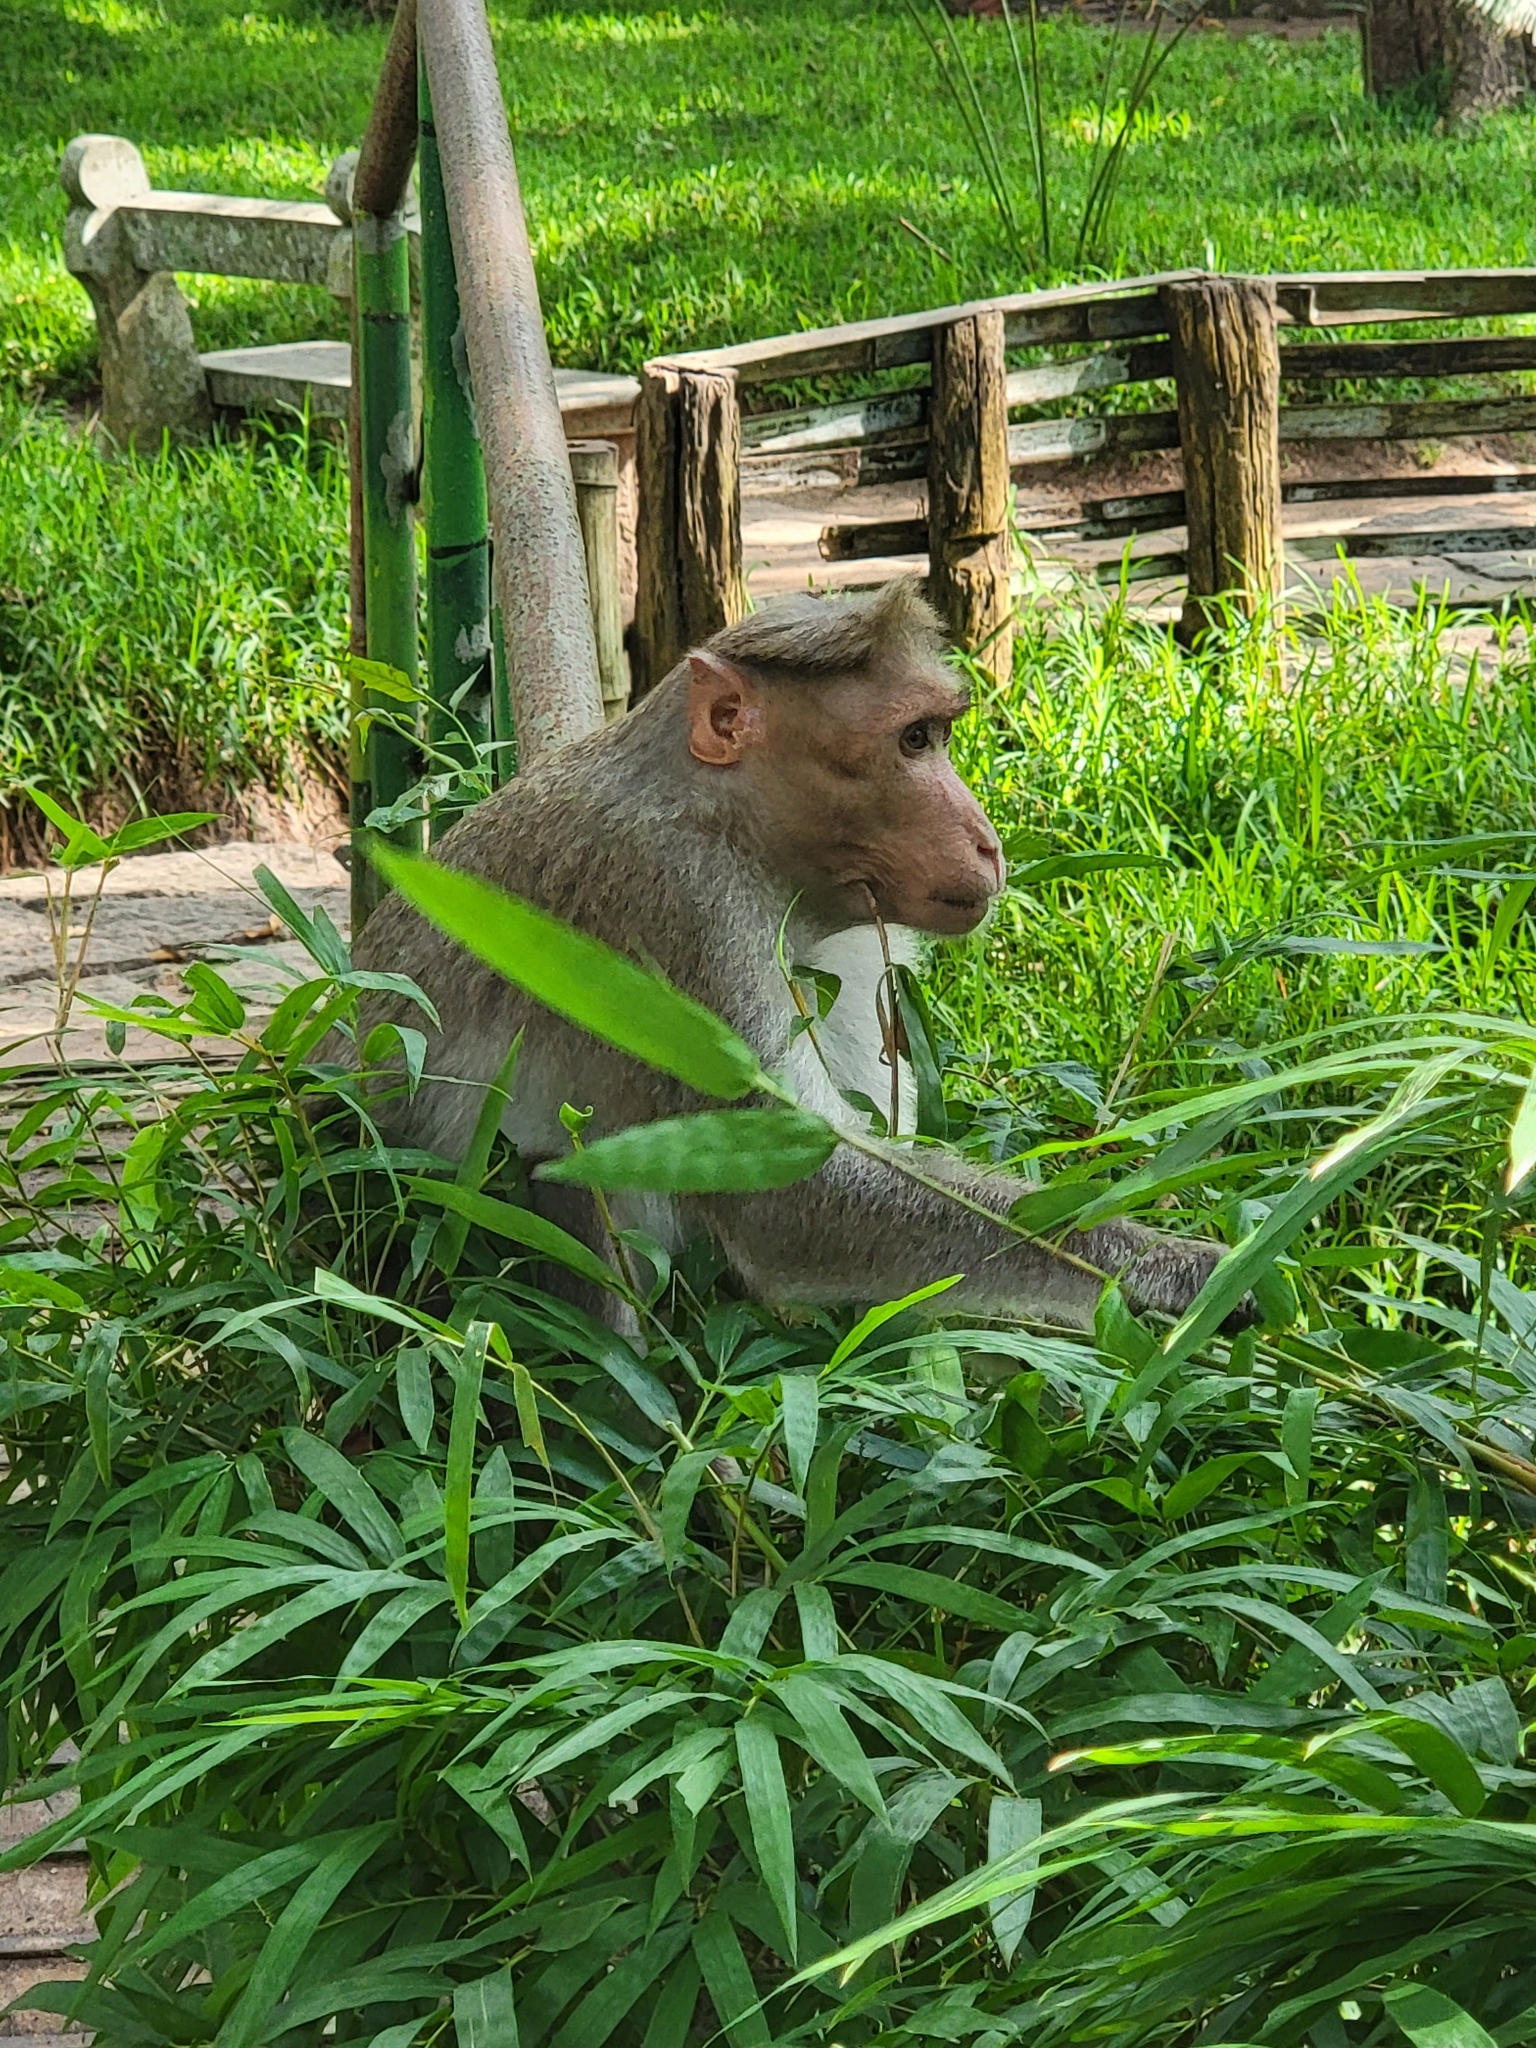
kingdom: Animalia
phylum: Chordata
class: Mammalia
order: Primates
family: Cercopithecidae
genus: Macaca
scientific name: Macaca radiata
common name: Bonnet macaque
